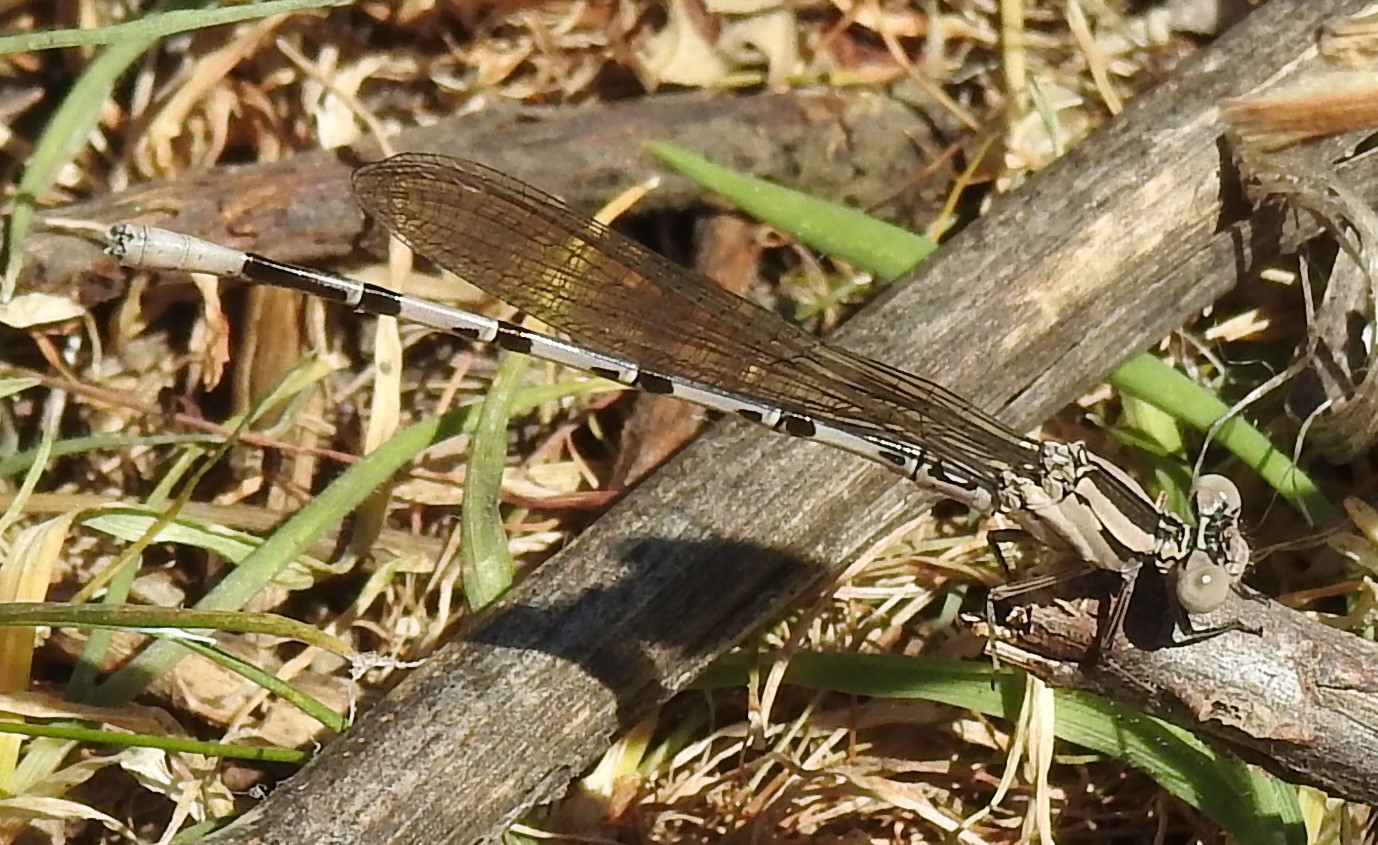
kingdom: Animalia
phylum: Arthropoda
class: Insecta
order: Odonata
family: Coenagrionidae
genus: Argia
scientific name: Argia vivida
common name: Vivid dancer
